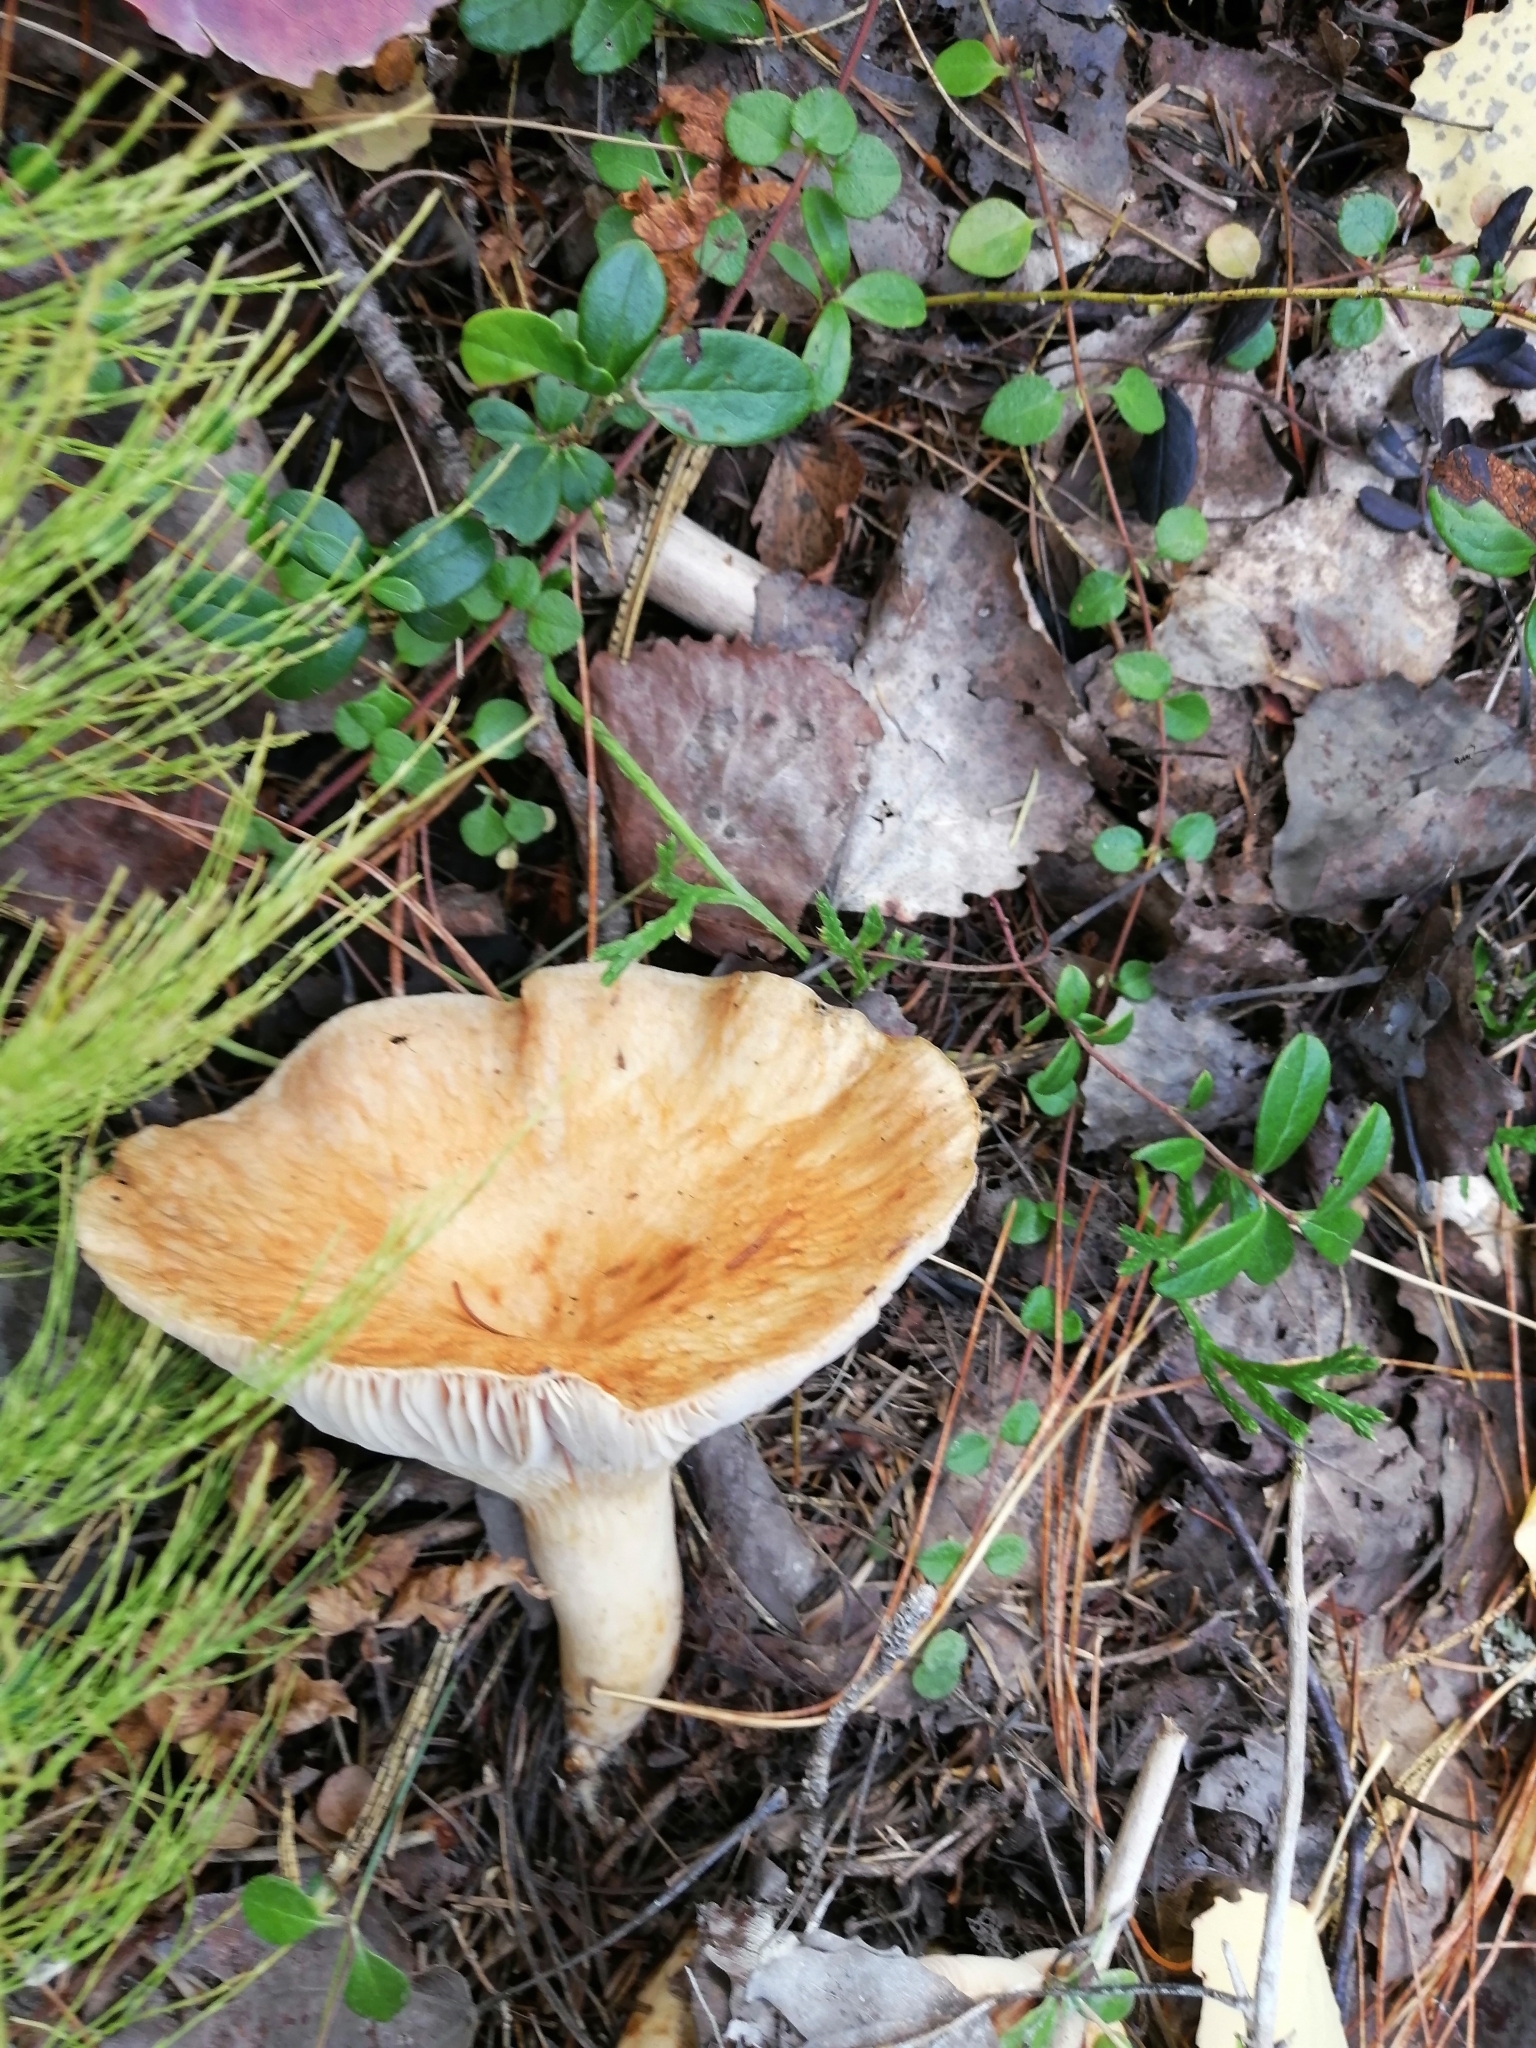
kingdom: Fungi
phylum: Basidiomycota
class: Agaricomycetes
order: Russulales
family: Russulaceae
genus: Lactarius
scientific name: Lactarius torminosus
